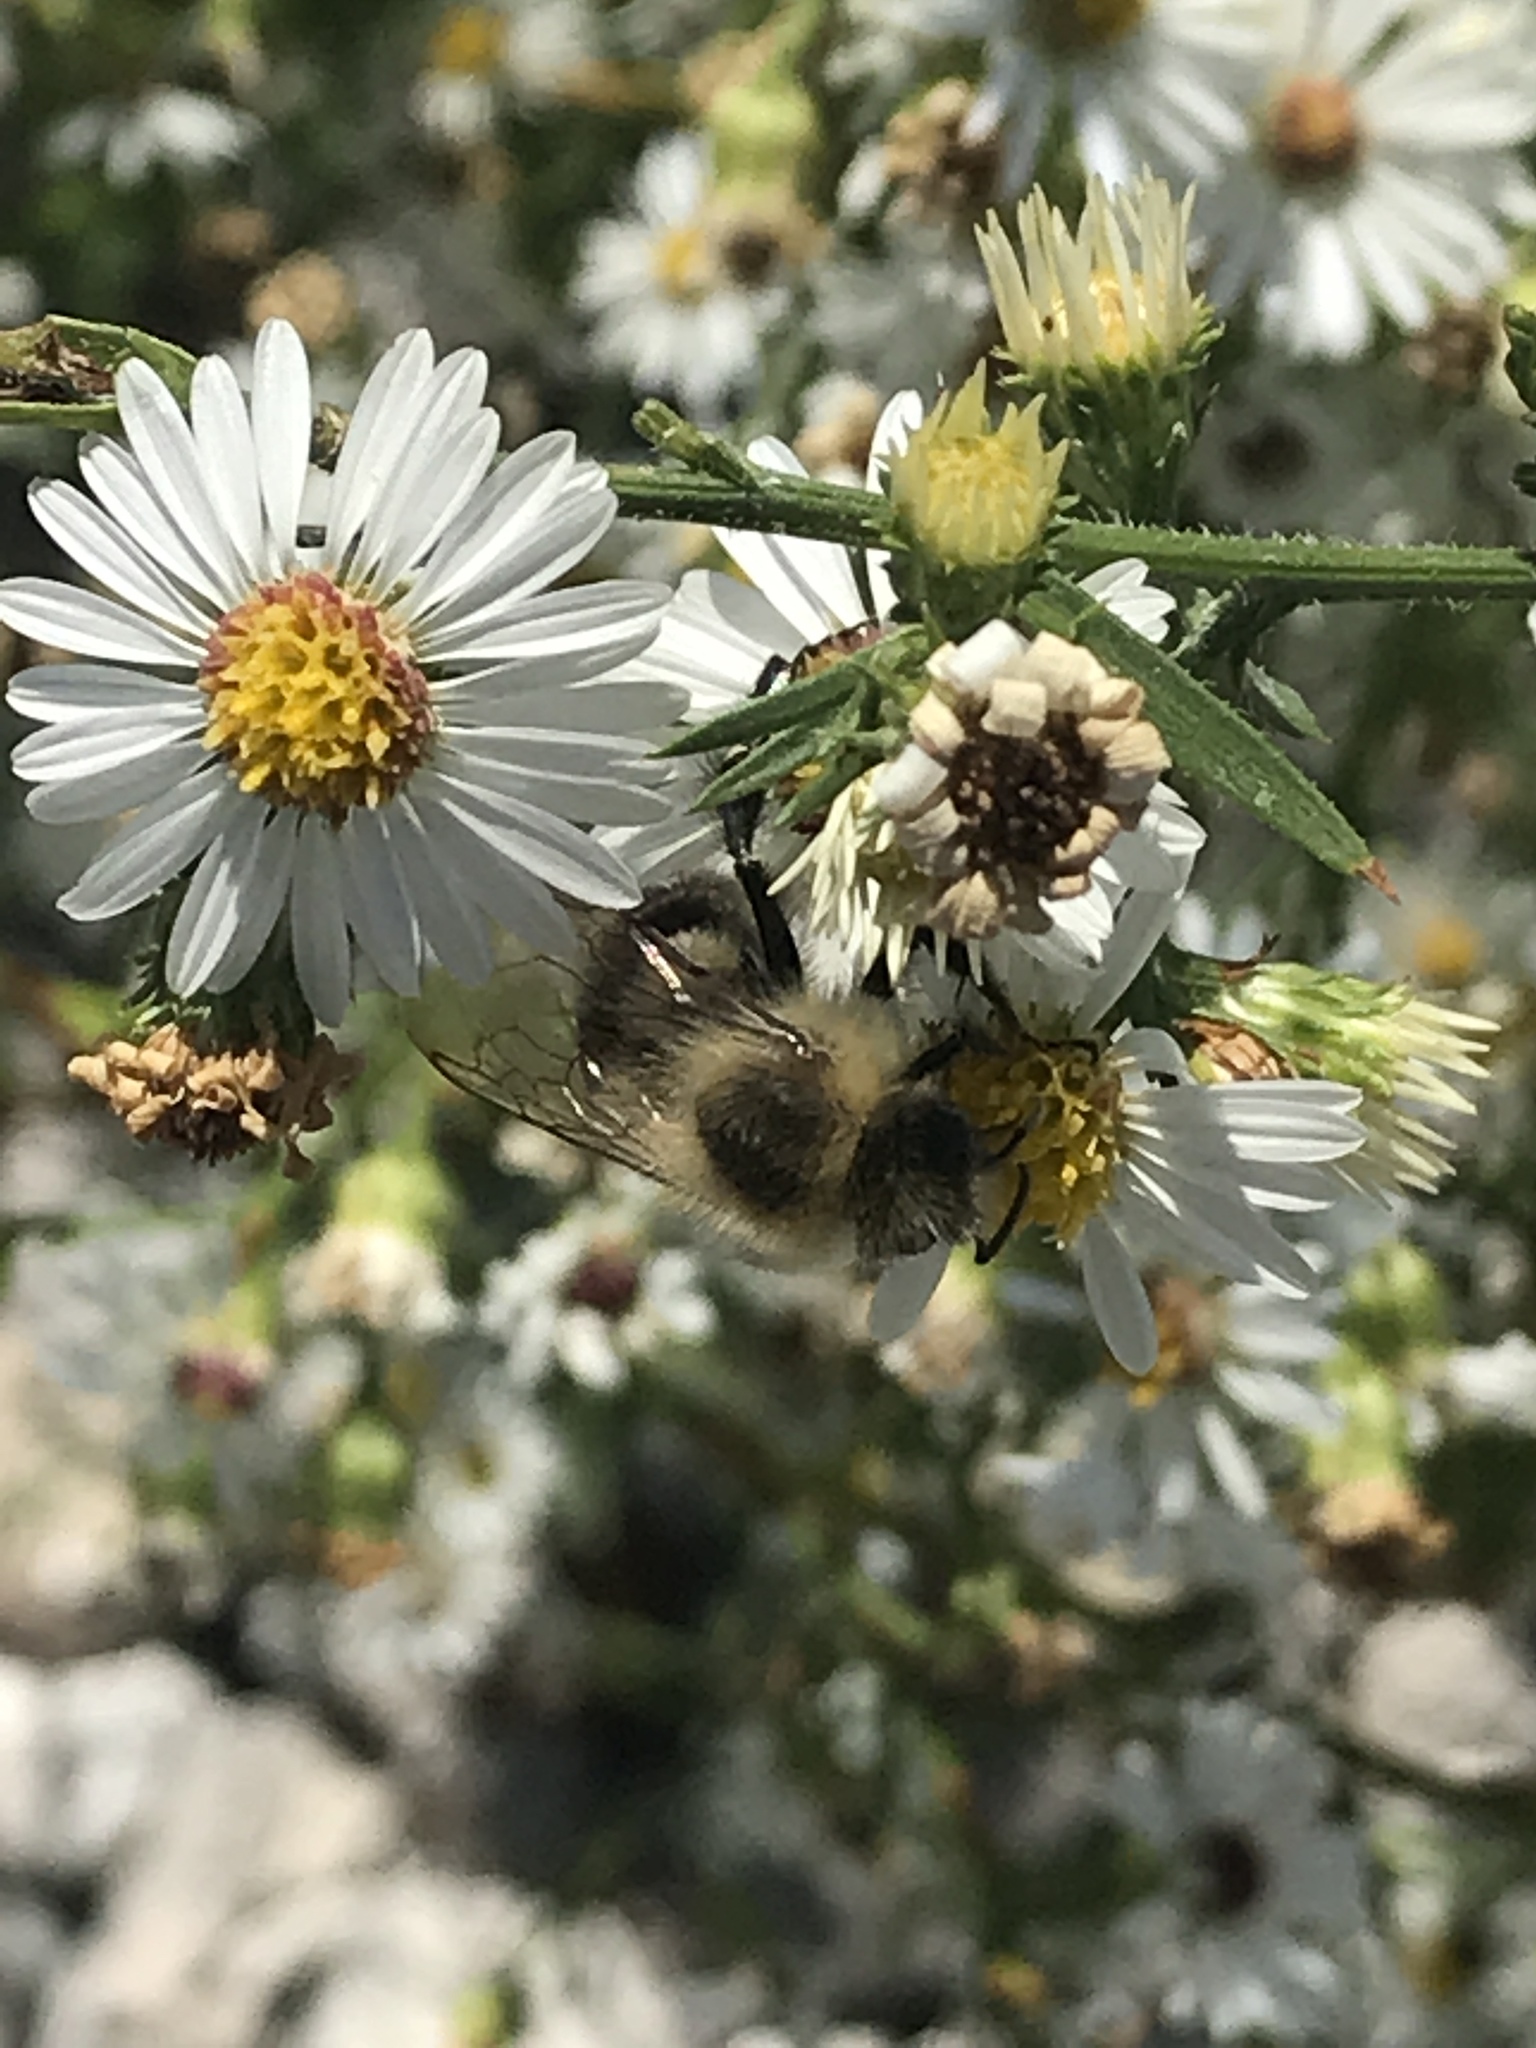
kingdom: Animalia
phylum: Arthropoda
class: Insecta
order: Hymenoptera
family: Apidae
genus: Bombus
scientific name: Bombus impatiens
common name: Common eastern bumble bee
